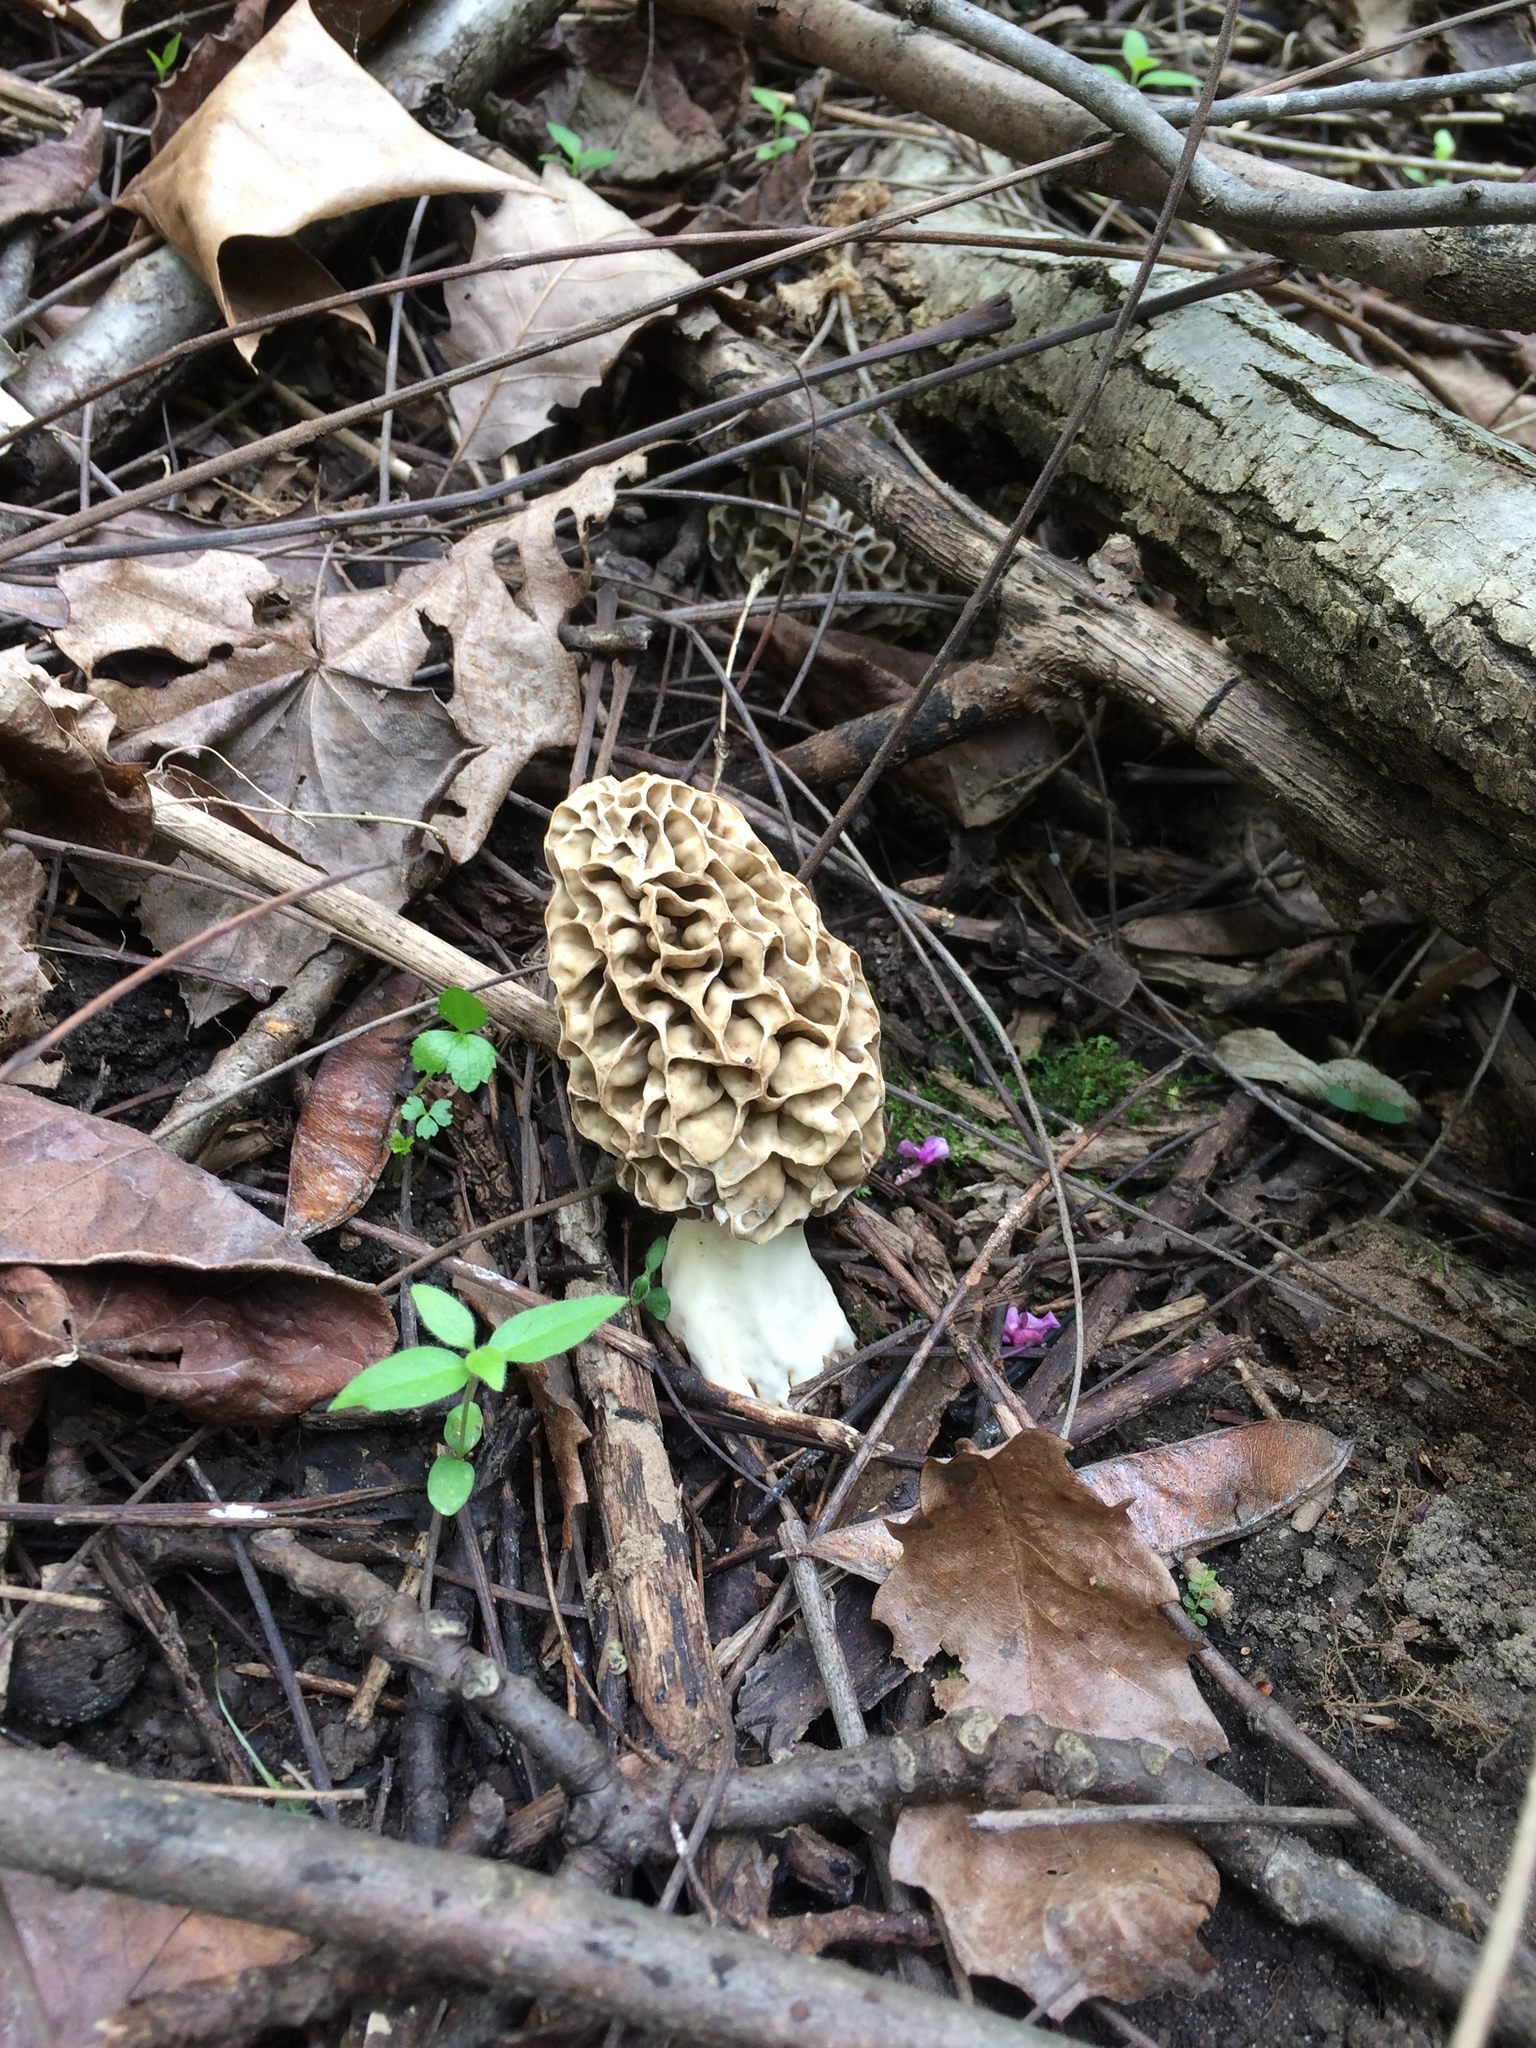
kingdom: Fungi
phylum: Ascomycota
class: Pezizomycetes
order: Pezizales
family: Morchellaceae
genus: Morchella
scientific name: Morchella americana
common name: White morel
